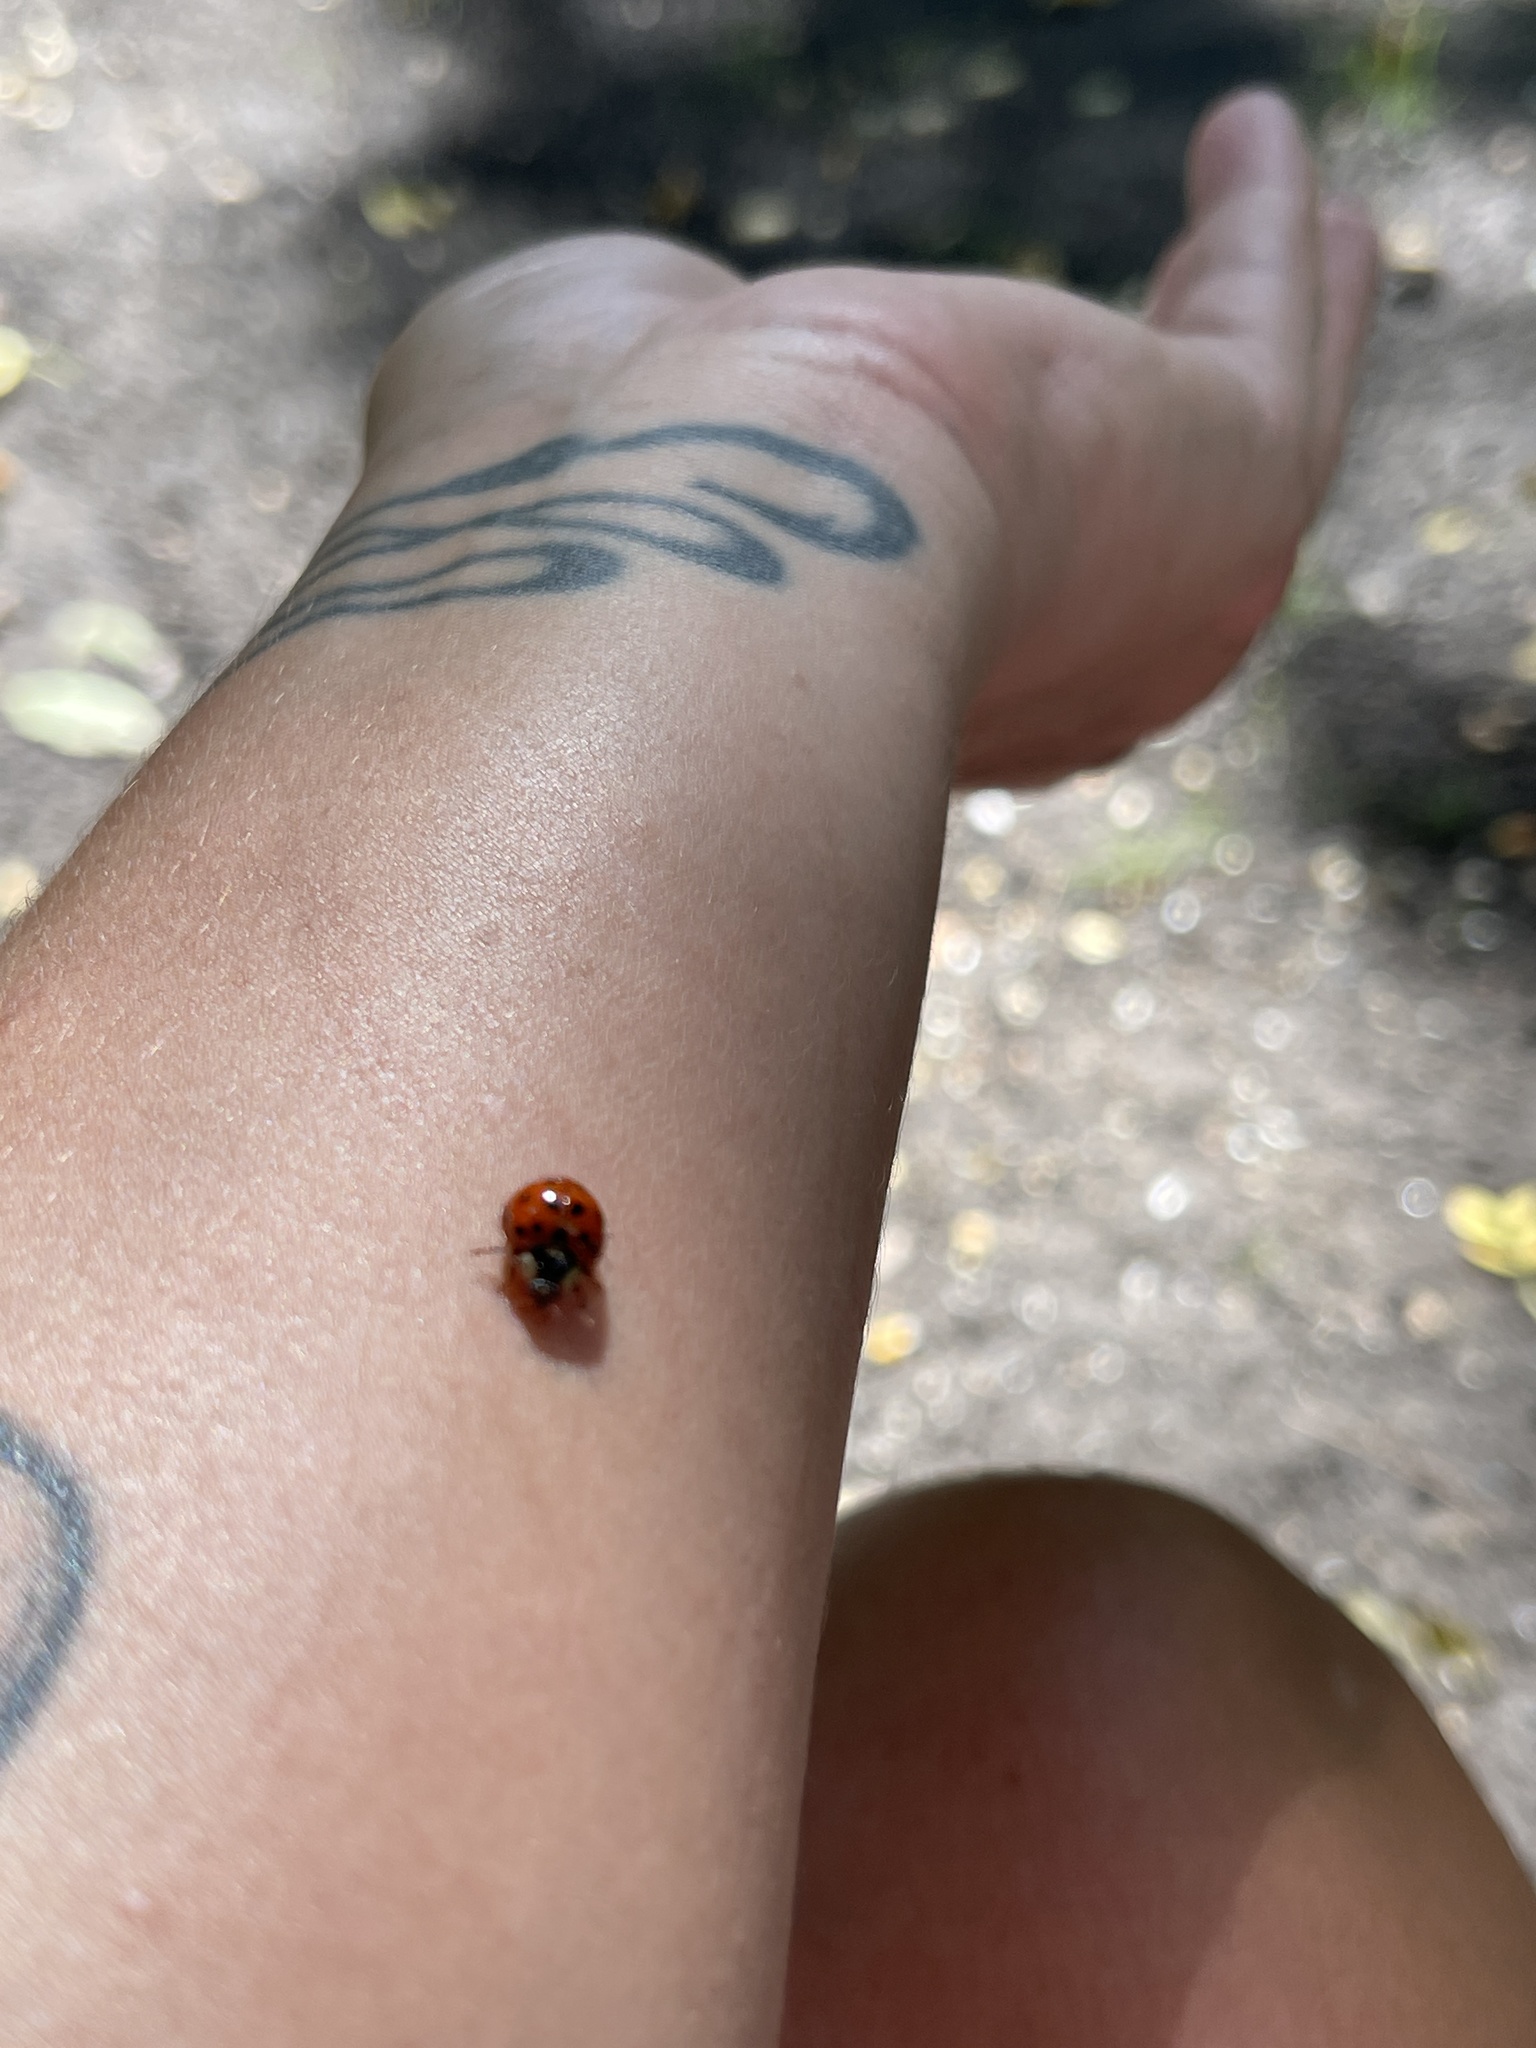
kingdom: Animalia
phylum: Arthropoda
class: Insecta
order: Coleoptera
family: Coccinellidae
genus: Harmonia
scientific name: Harmonia axyridis
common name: Harlequin ladybird
